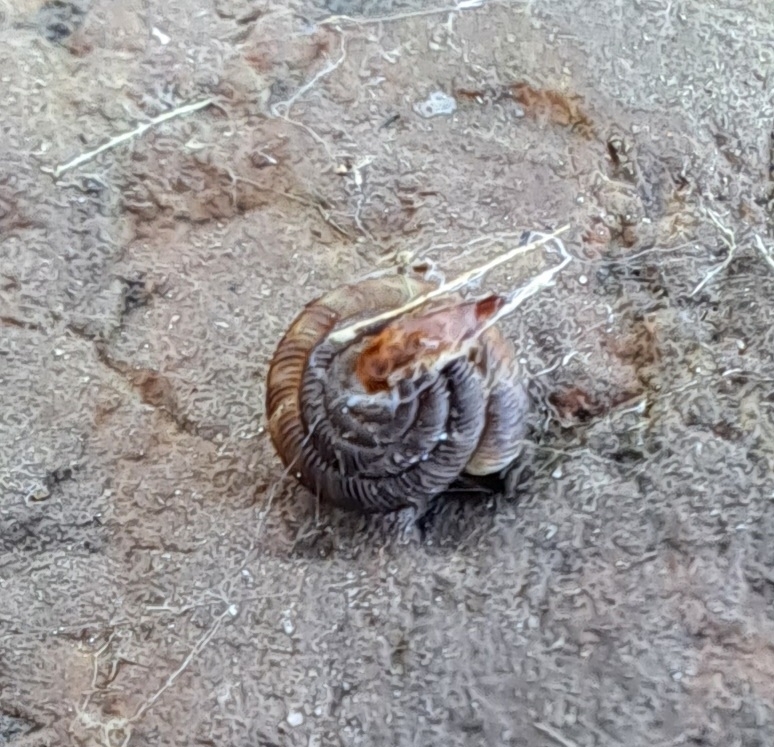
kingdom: Animalia
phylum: Mollusca
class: Gastropoda
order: Stylommatophora
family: Discidae
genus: Discus
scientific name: Discus rotundatus
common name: Rounded snail
